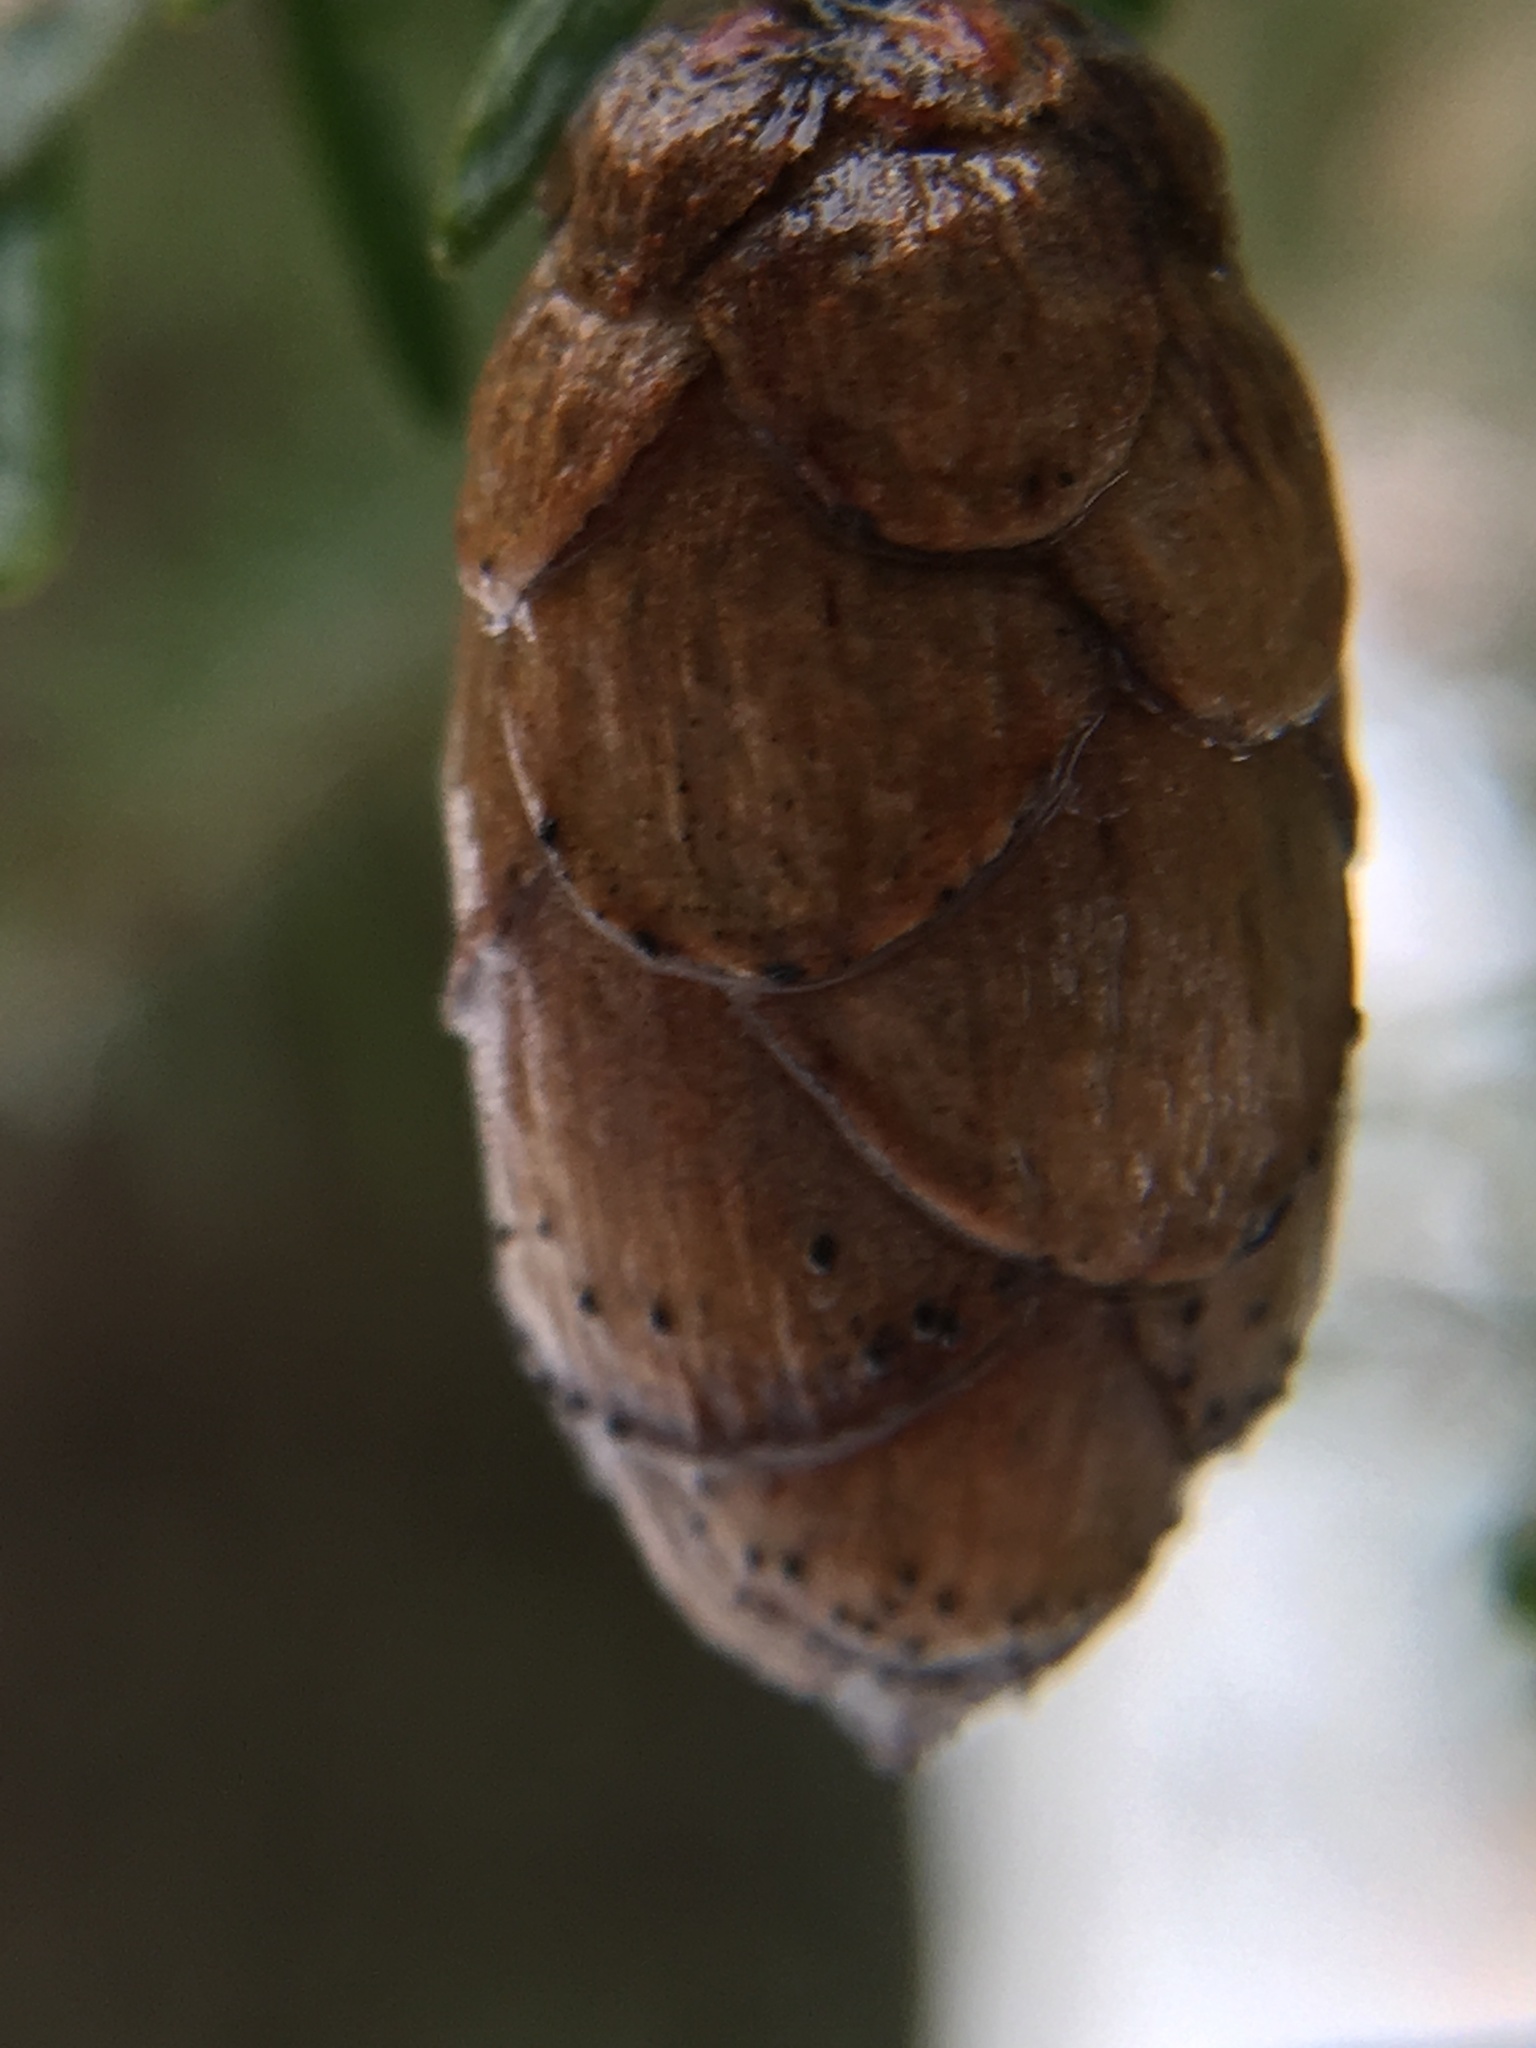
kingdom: Plantae
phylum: Tracheophyta
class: Pinopsida
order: Pinales
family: Pinaceae
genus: Tsuga
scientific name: Tsuga canadensis
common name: Eastern hemlock
